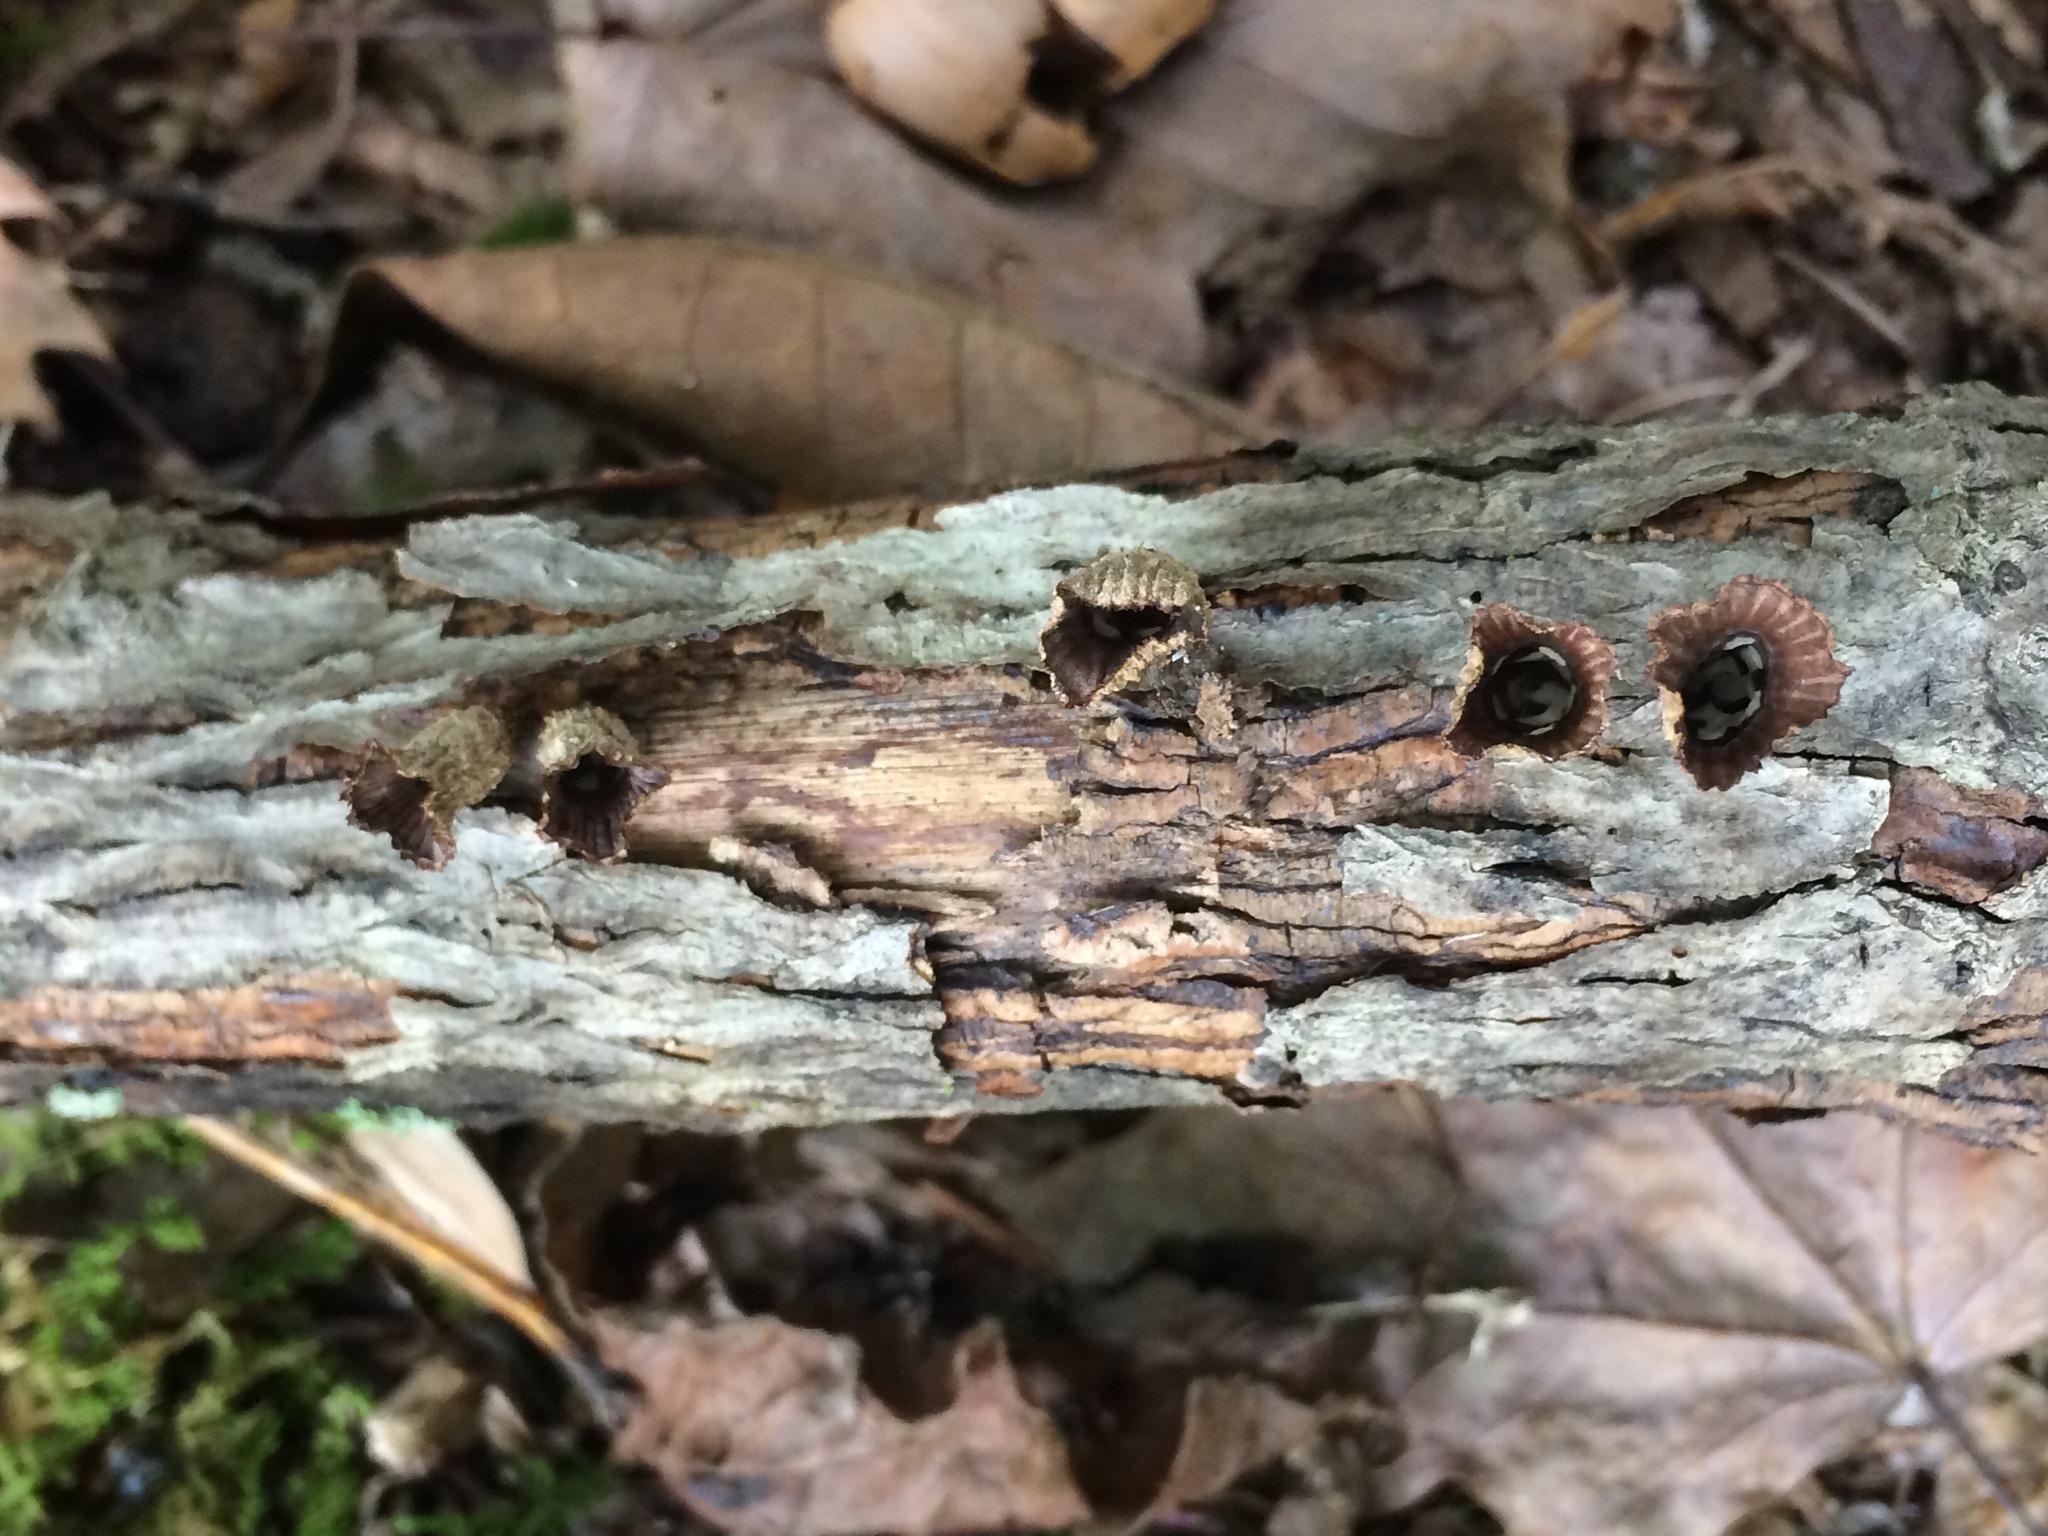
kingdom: Fungi
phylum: Basidiomycota
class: Agaricomycetes
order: Agaricales
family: Agaricaceae
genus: Cyathus
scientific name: Cyathus striatus
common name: Fluted bird's nest
